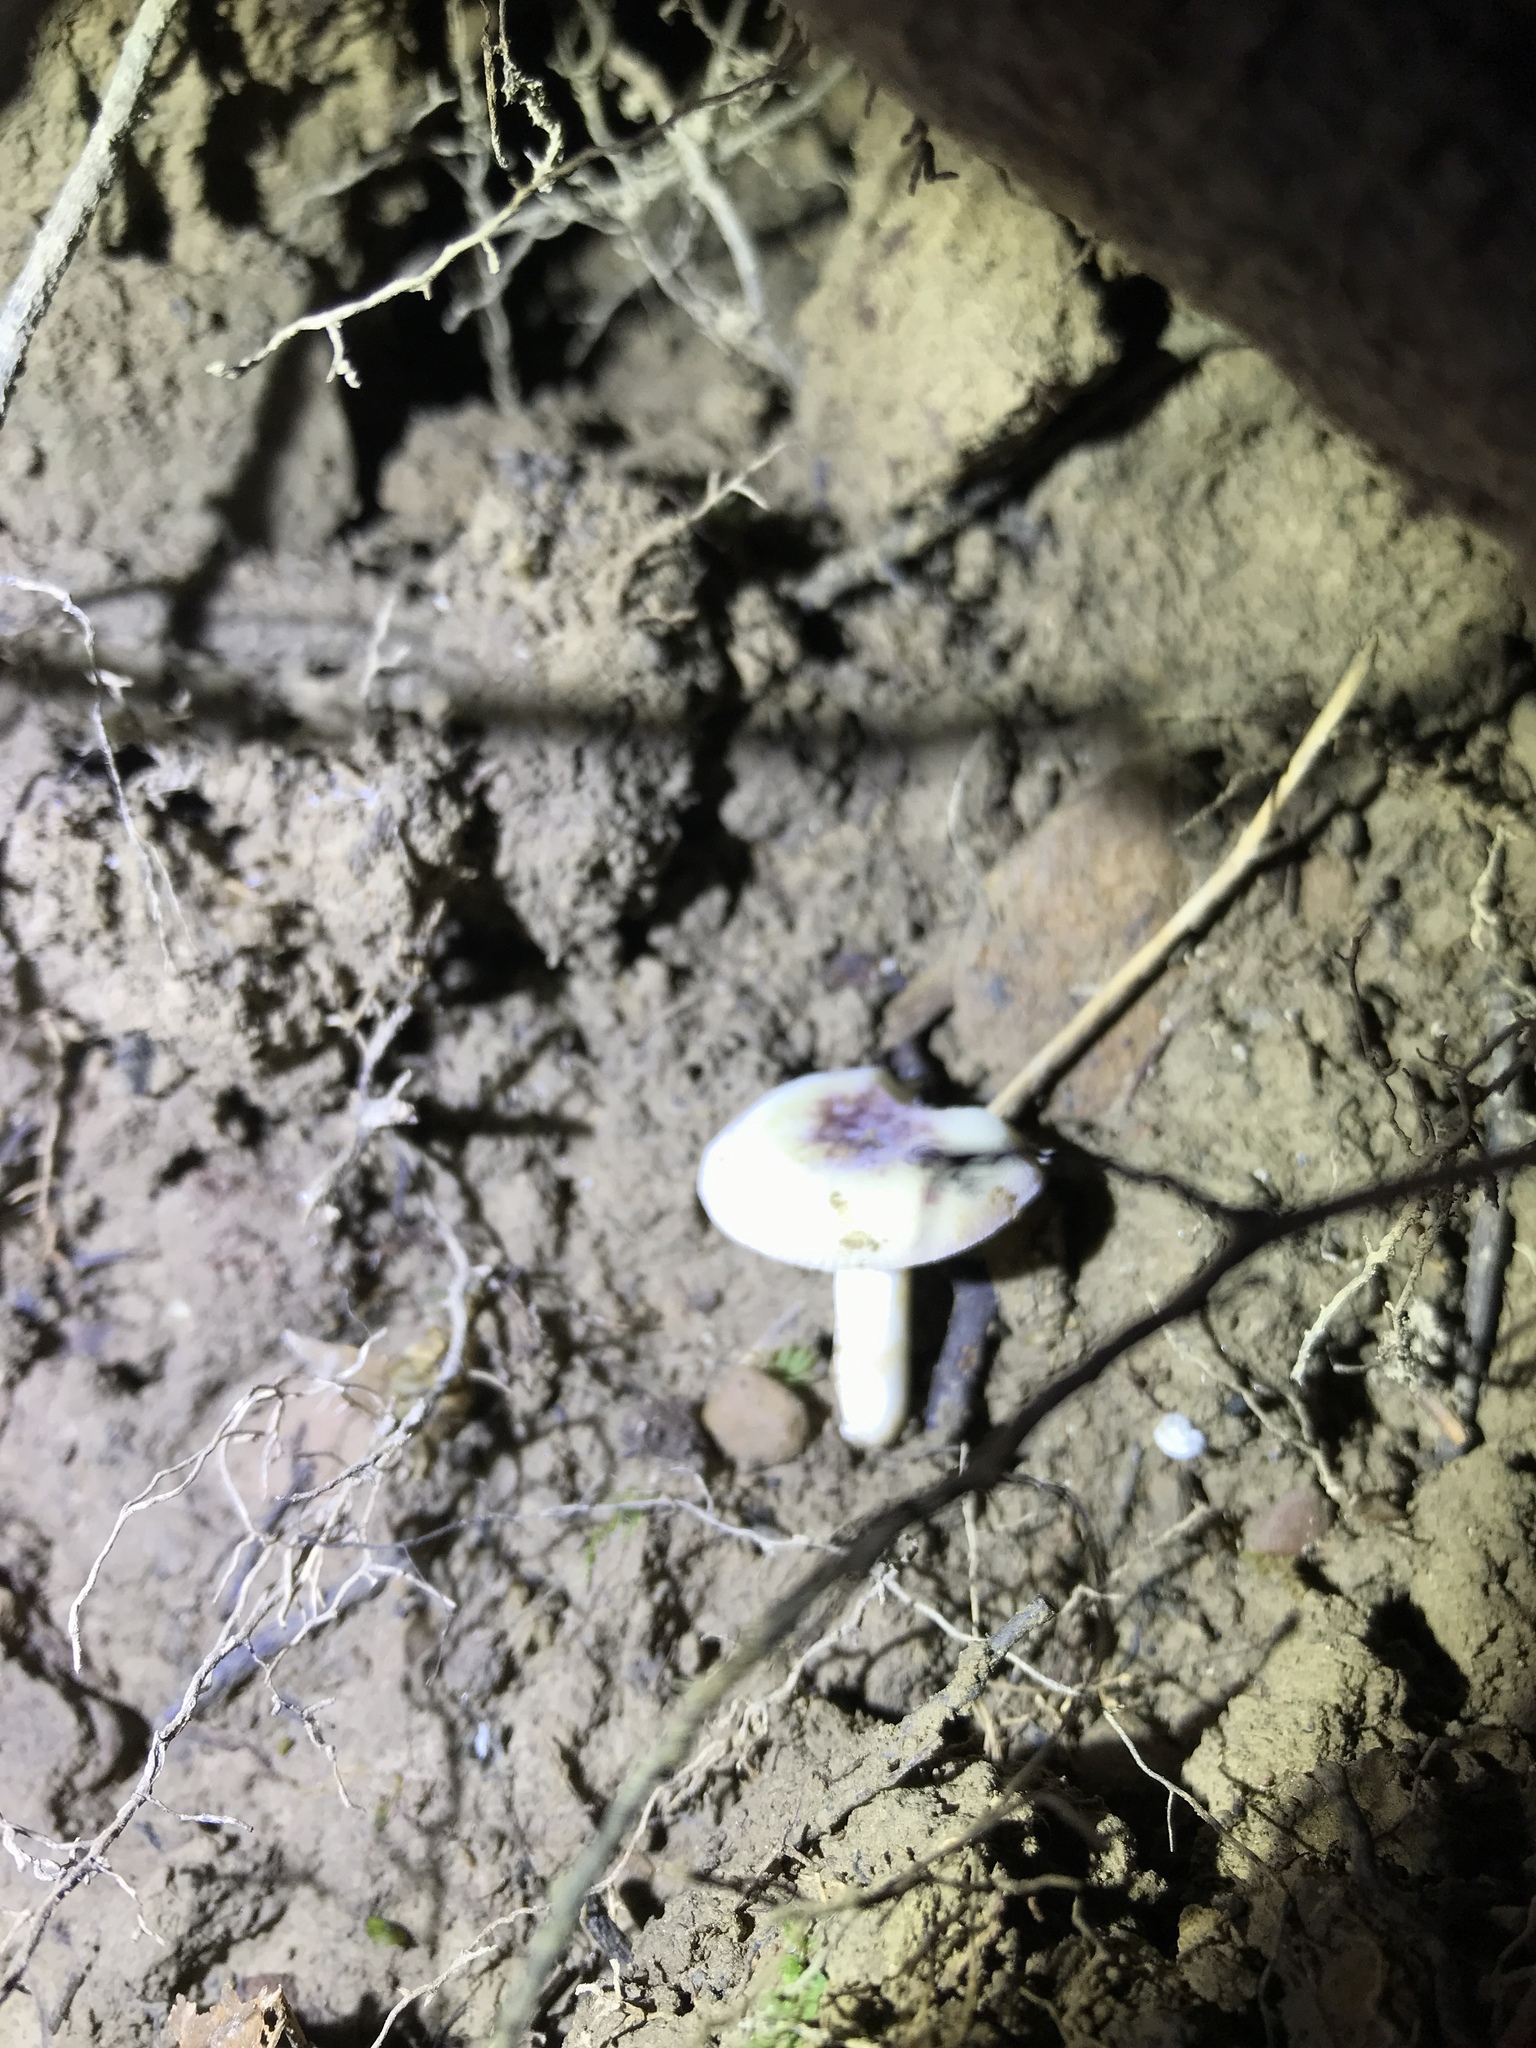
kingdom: Fungi
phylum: Basidiomycota
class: Agaricomycetes
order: Russulales
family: Russulaceae
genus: Russula
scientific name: Russula mariae
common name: Purple-bloom russula
